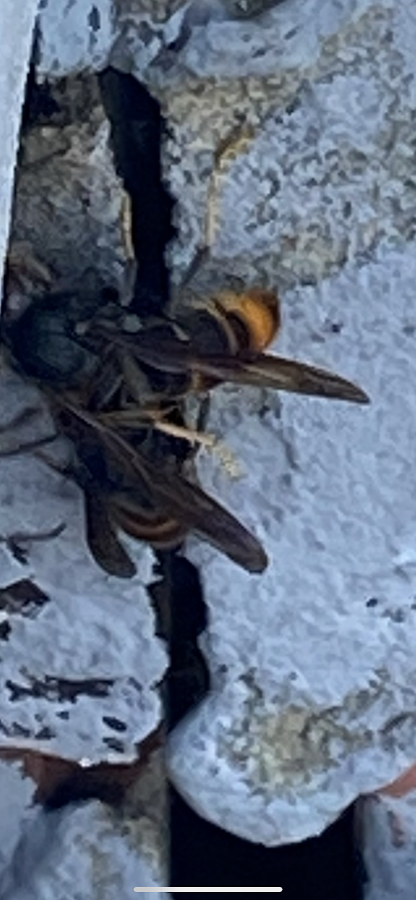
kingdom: Animalia
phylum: Arthropoda
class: Insecta
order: Hymenoptera
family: Vespidae
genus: Vespa
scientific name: Vespa velutina
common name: Asian hornet
